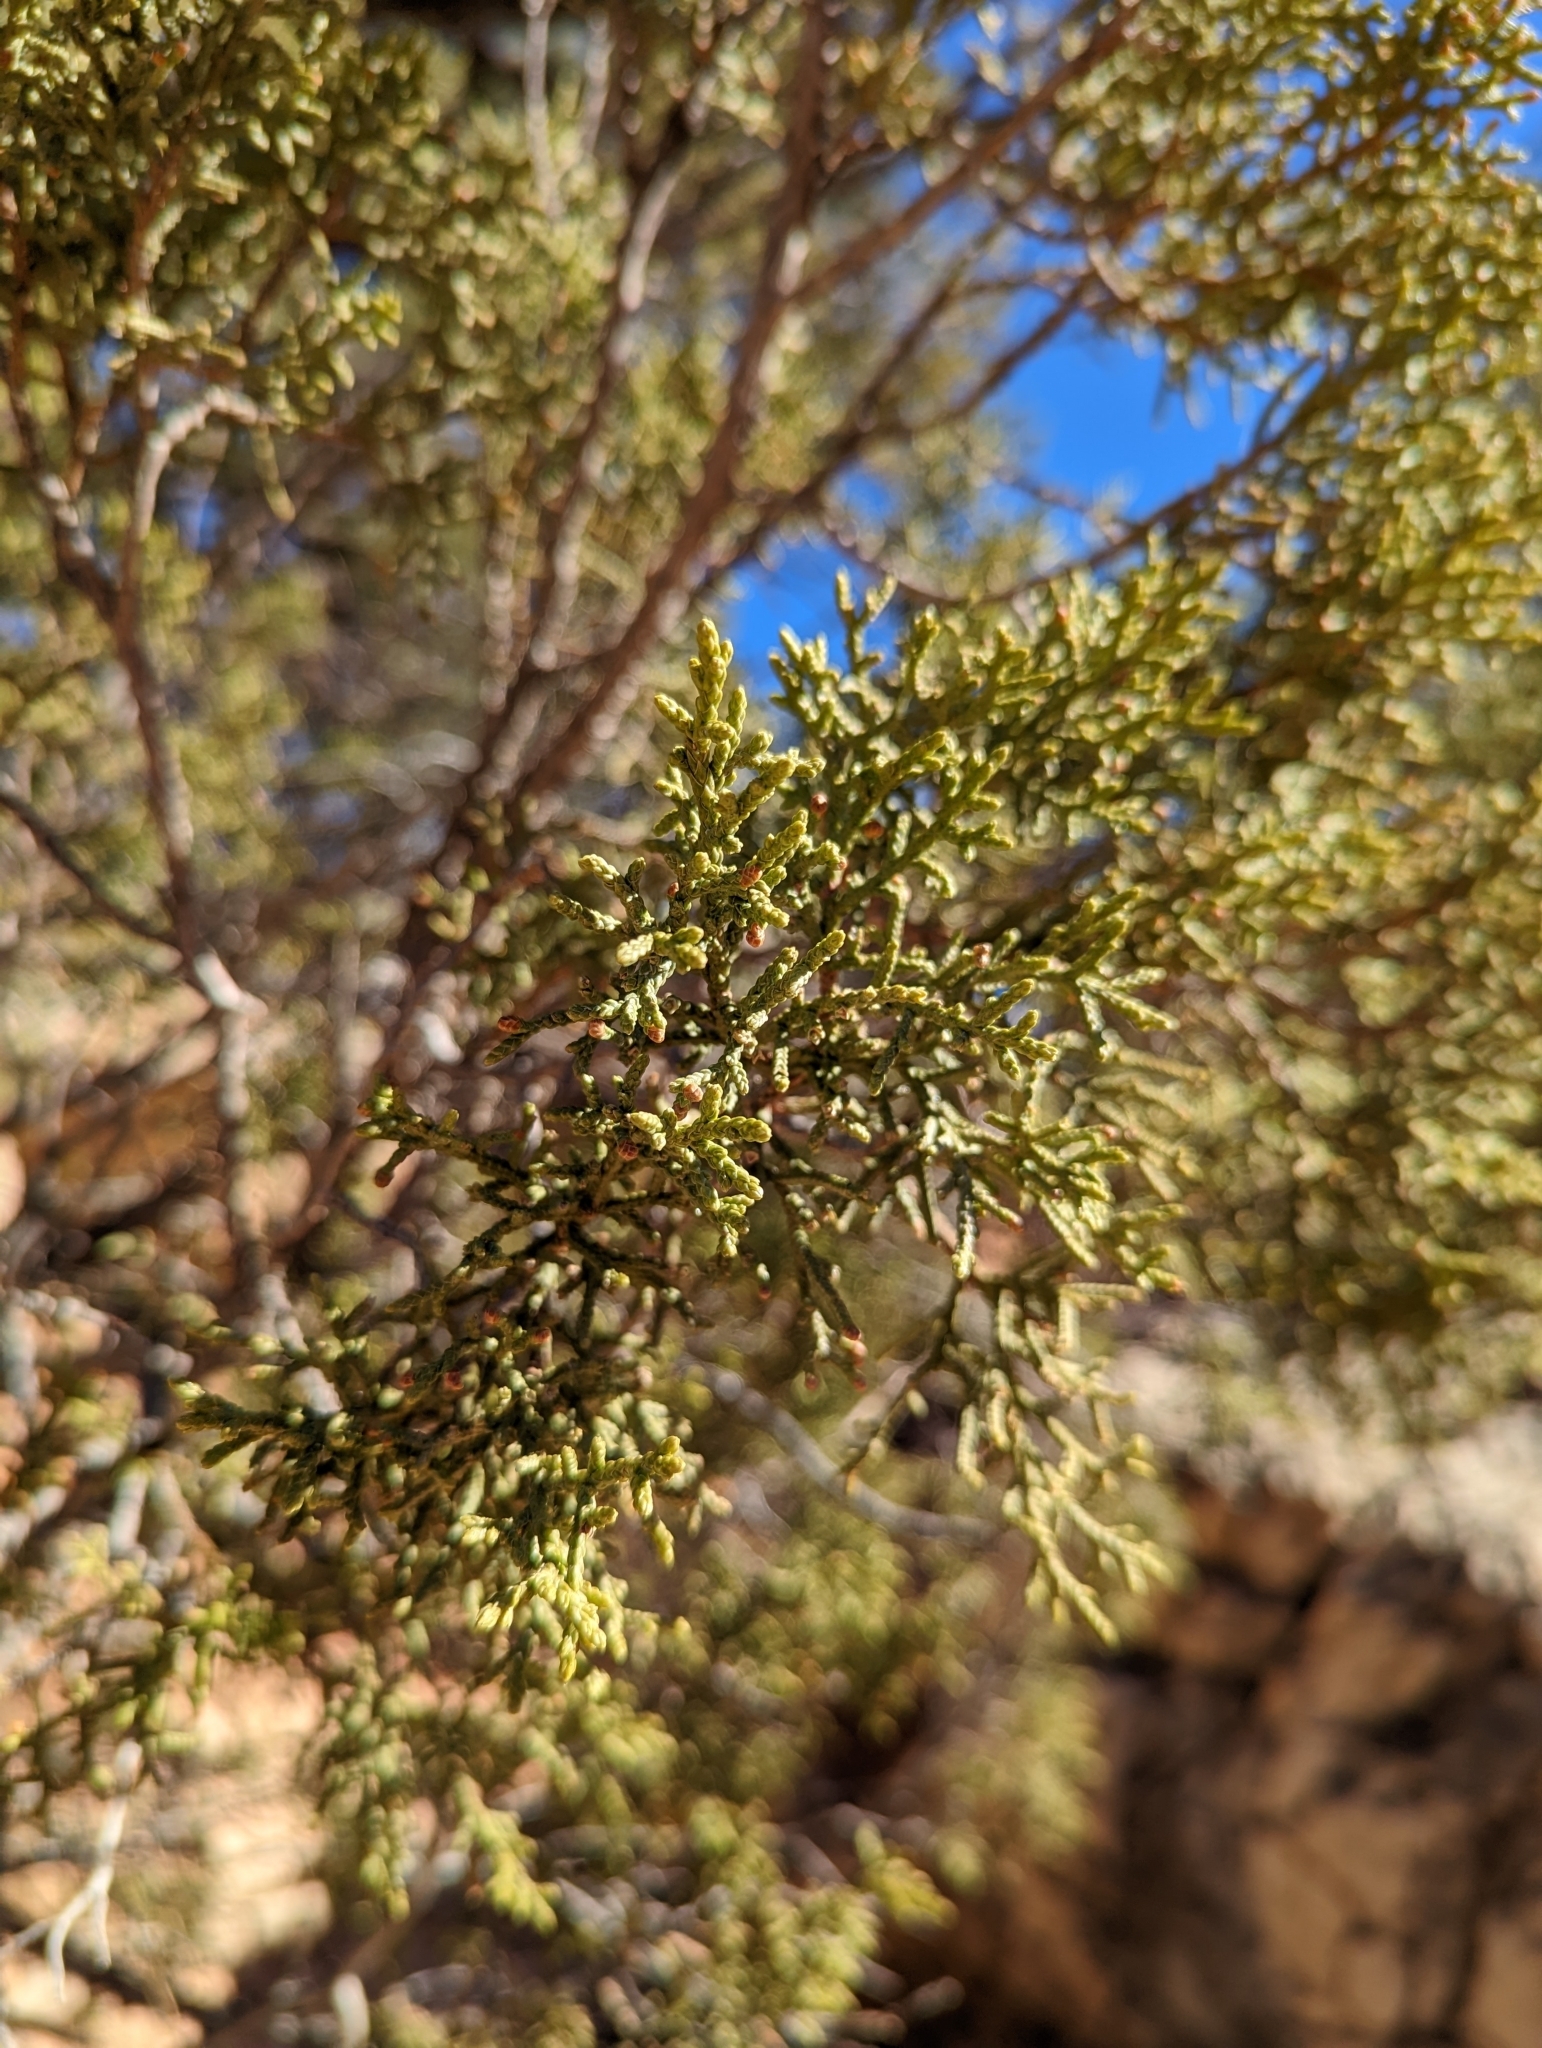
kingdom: Plantae
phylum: Tracheophyta
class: Pinopsida
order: Pinales
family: Cupressaceae
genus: Juniperus
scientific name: Juniperus monosperma
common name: One-seed juniper
